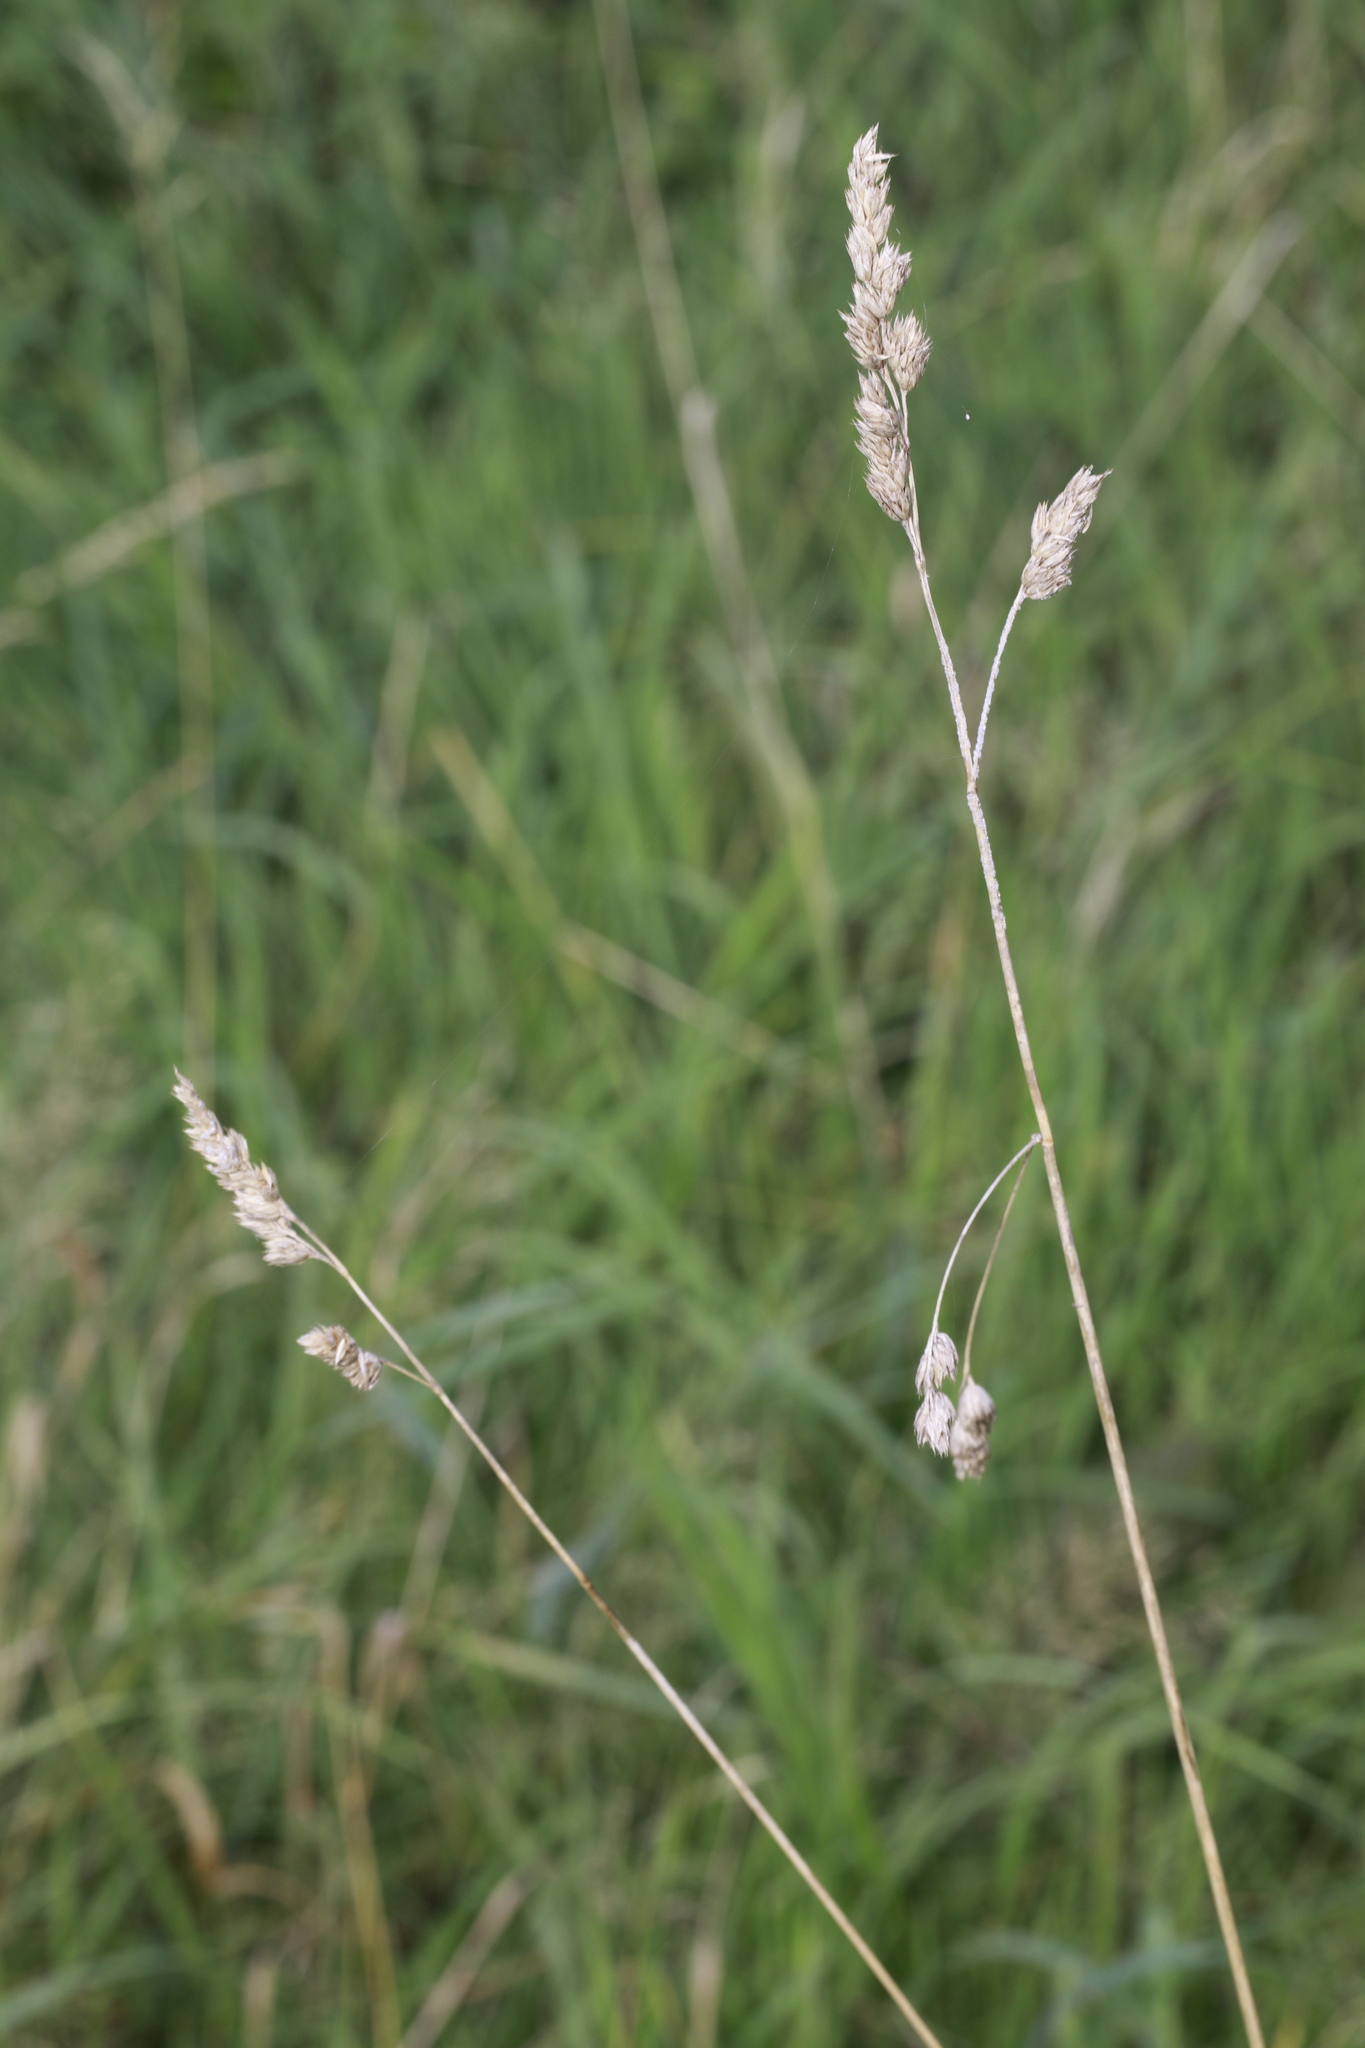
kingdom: Plantae
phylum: Tracheophyta
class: Liliopsida
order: Poales
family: Poaceae
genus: Dactylis
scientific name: Dactylis glomerata
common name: Orchardgrass
